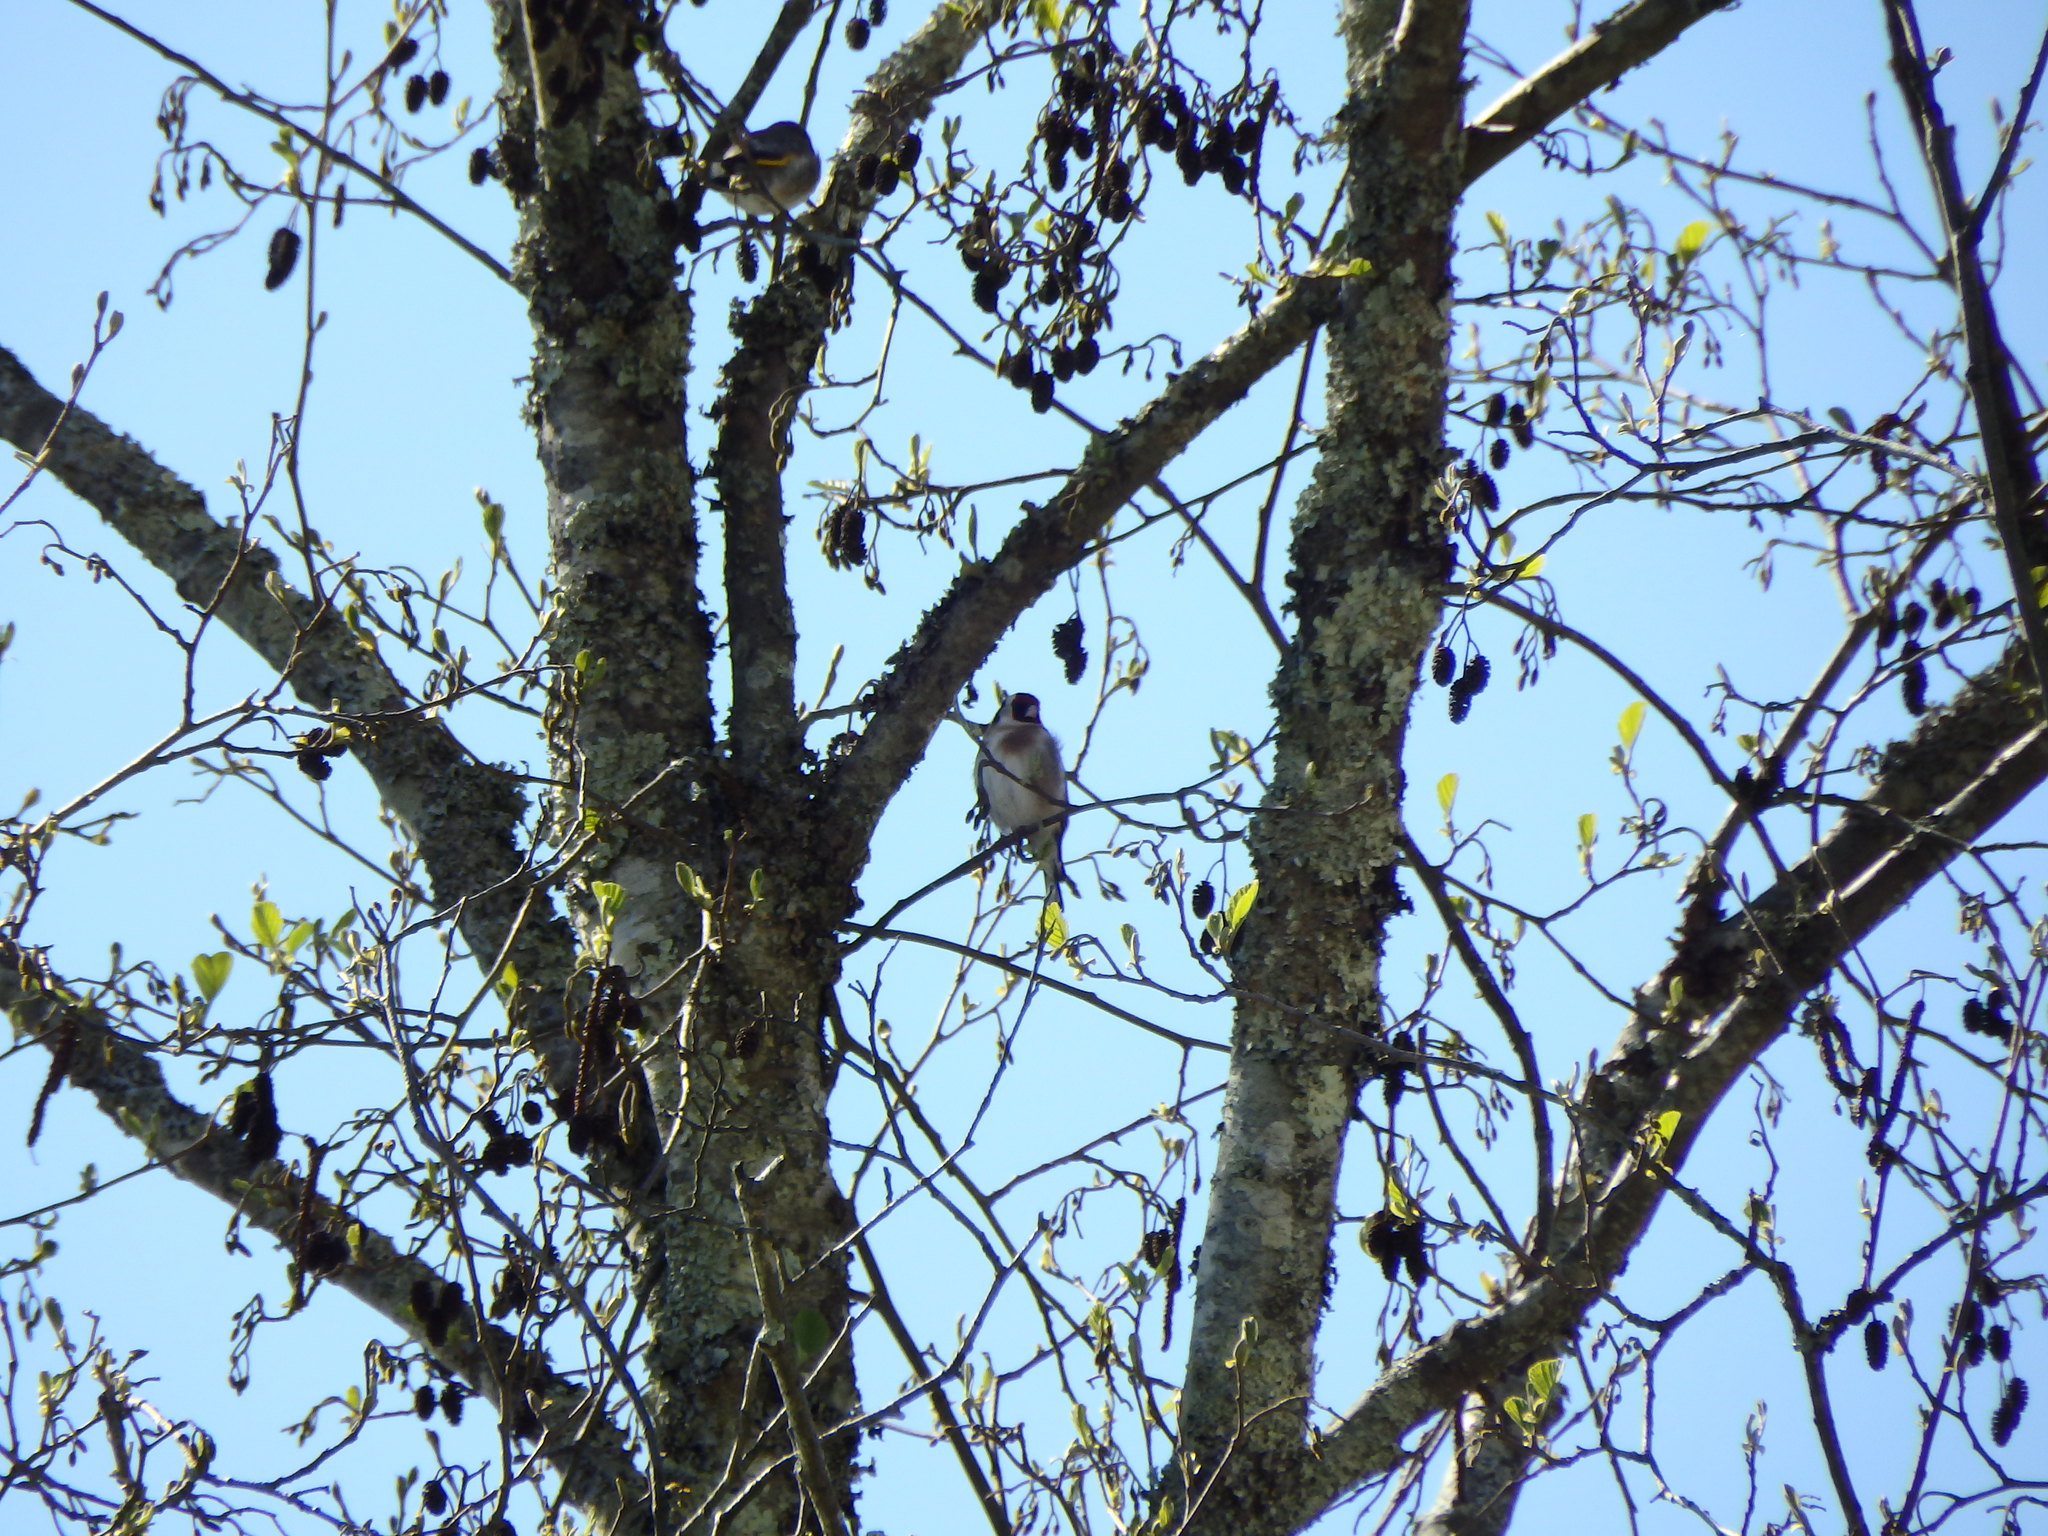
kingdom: Animalia
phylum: Chordata
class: Aves
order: Passeriformes
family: Fringillidae
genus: Carduelis
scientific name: Carduelis carduelis
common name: European goldfinch
